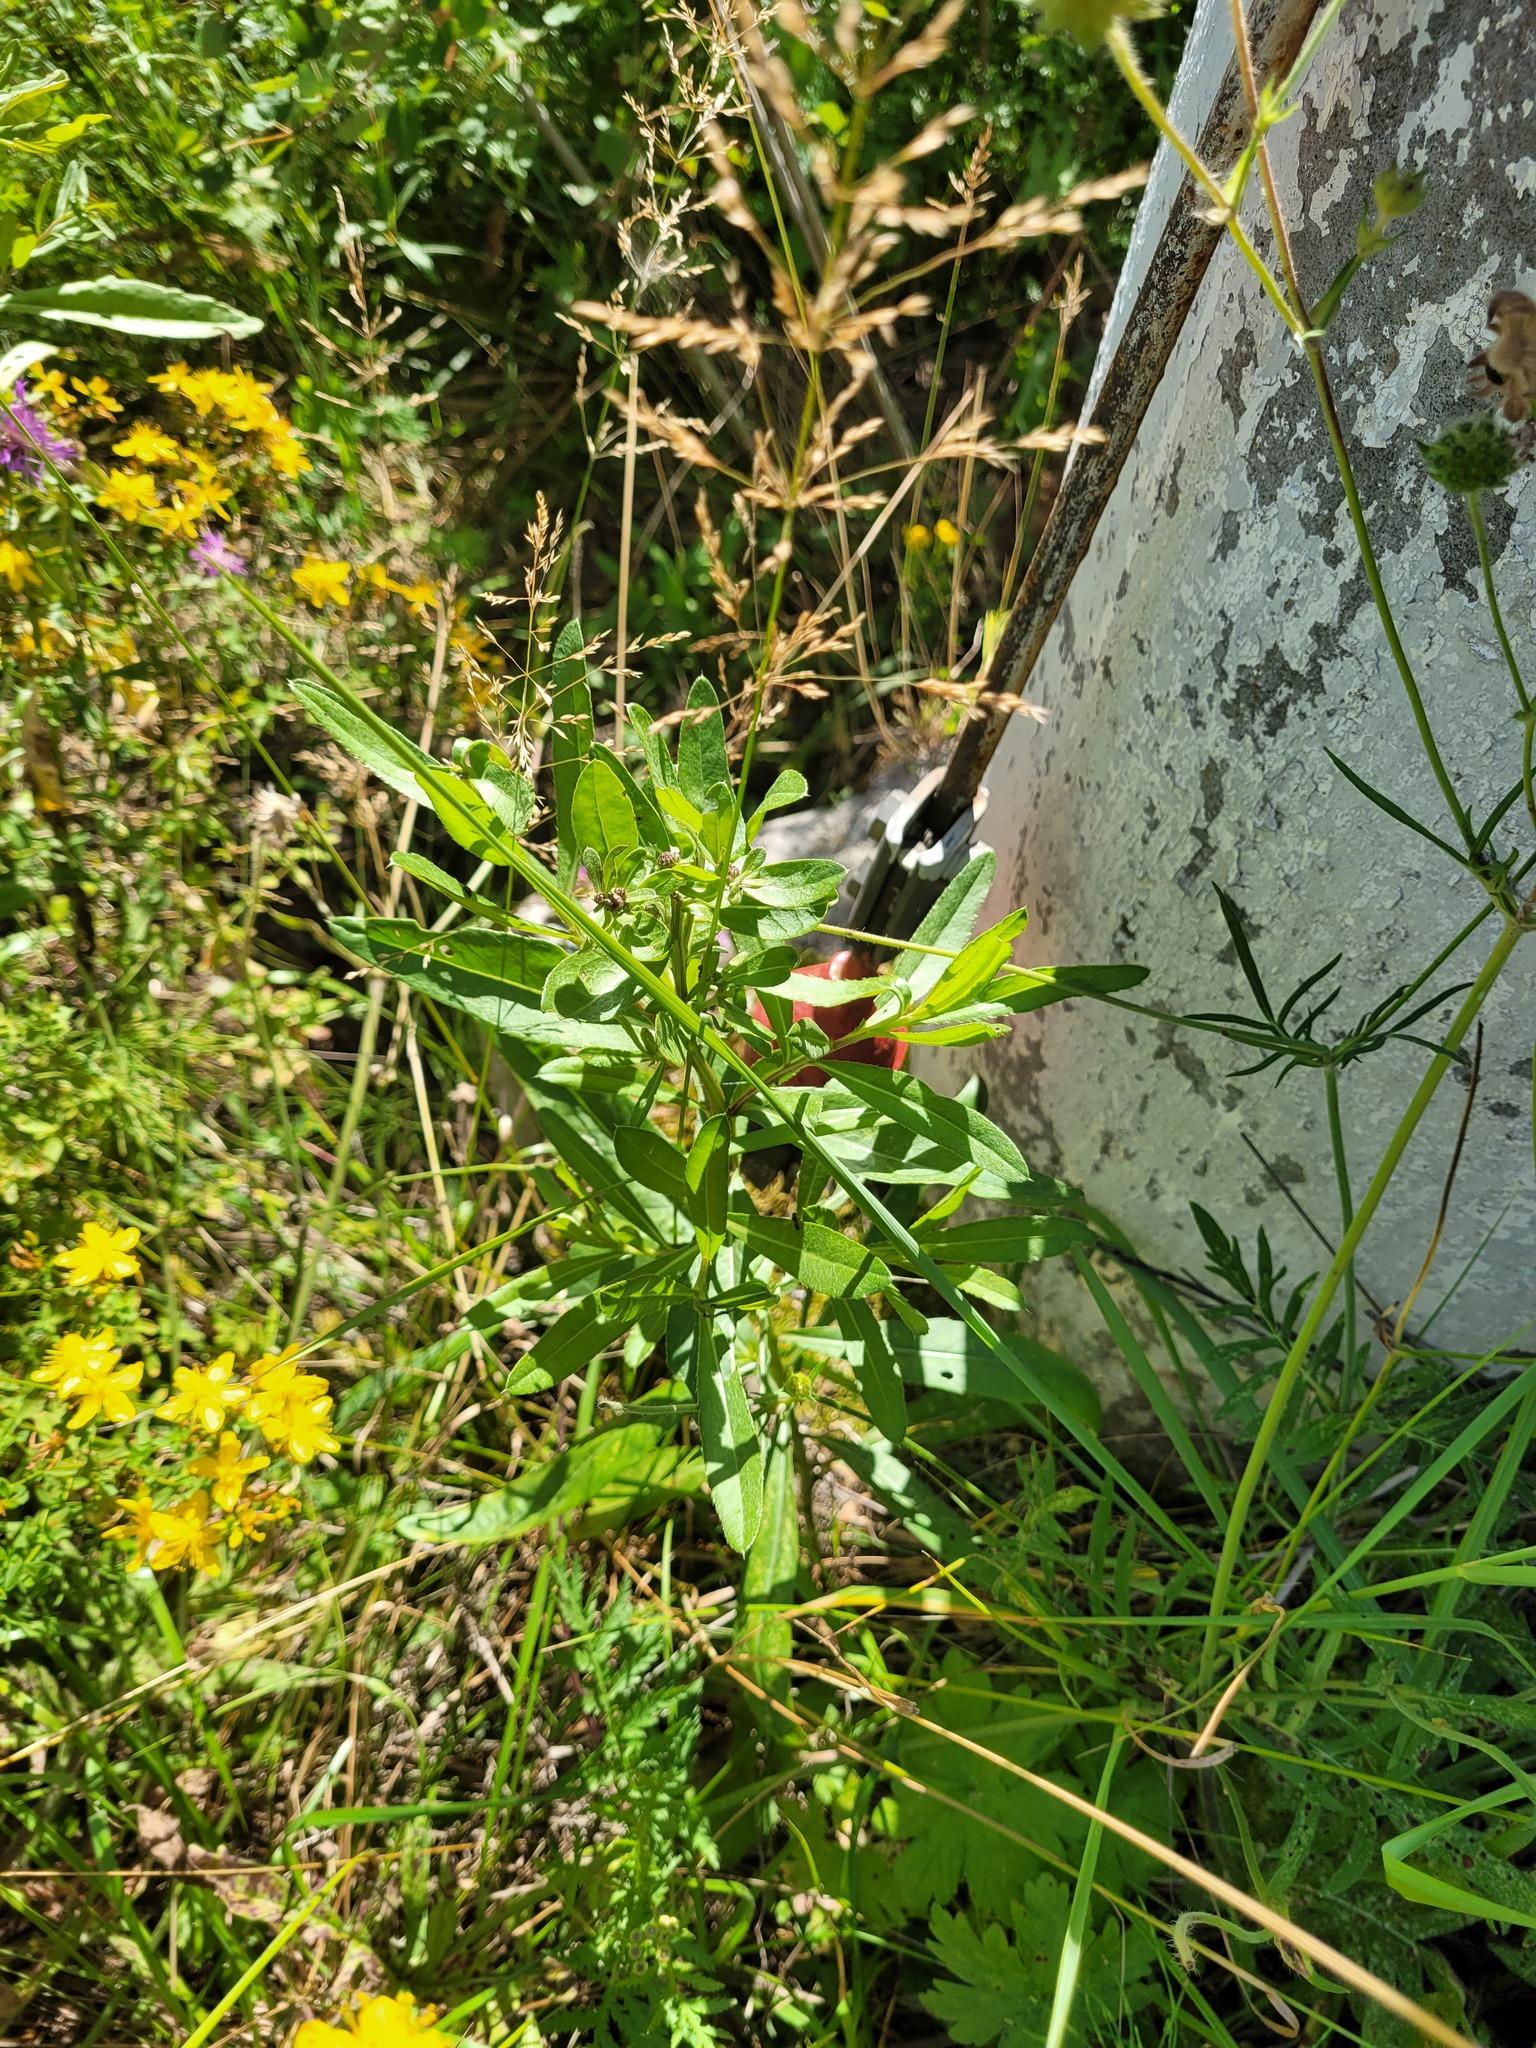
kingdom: Plantae
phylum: Tracheophyta
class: Magnoliopsida
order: Asterales
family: Asteraceae
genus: Cirsium
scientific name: Cirsium arvense
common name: Creeping thistle
